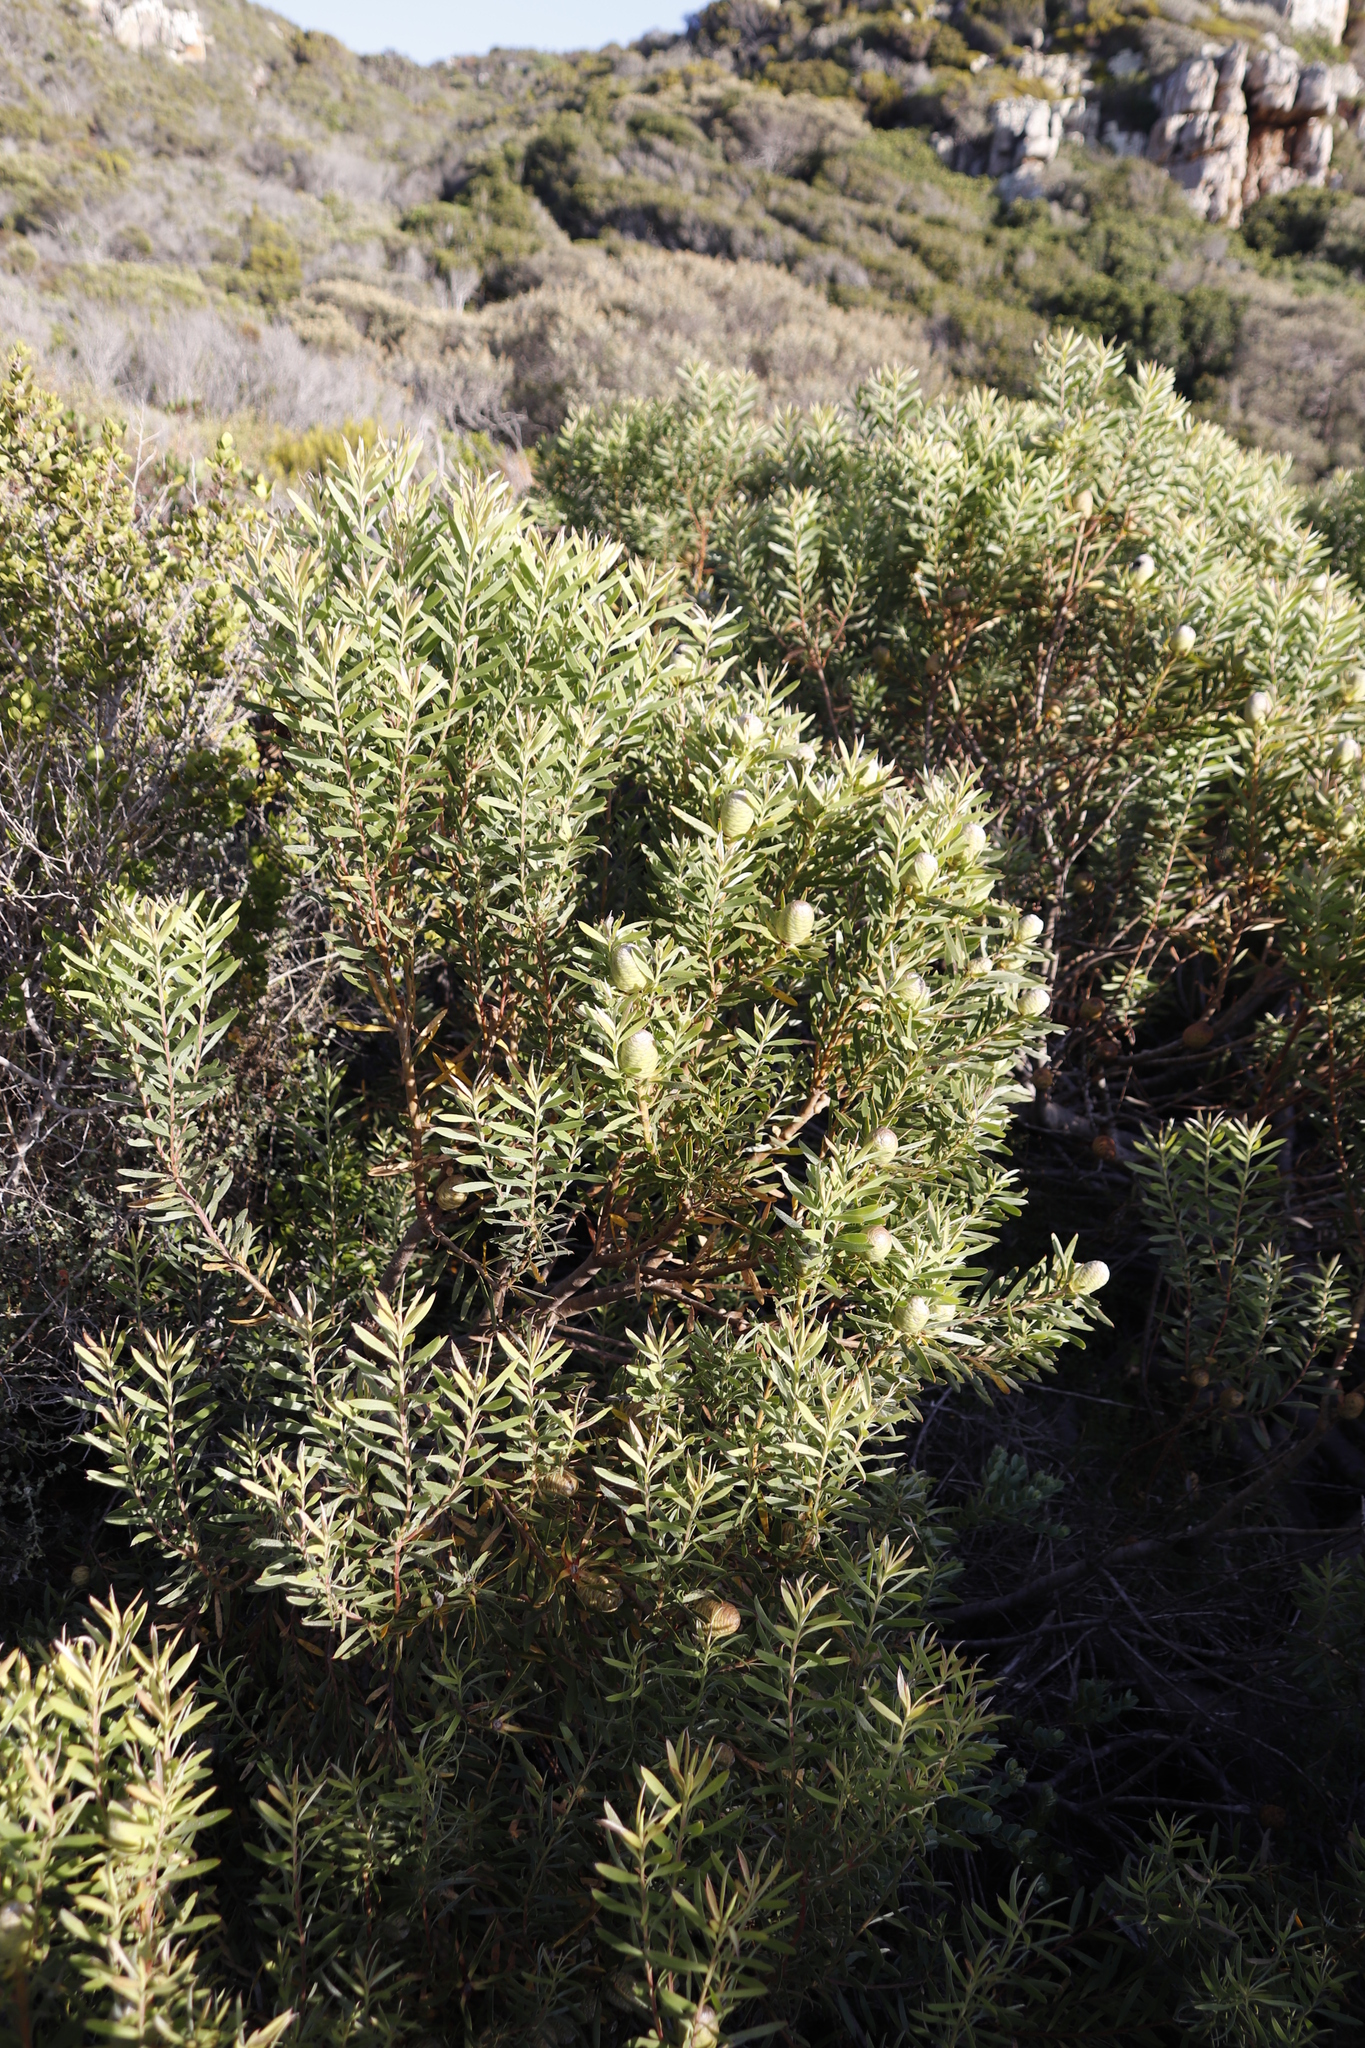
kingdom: Plantae
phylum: Tracheophyta
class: Magnoliopsida
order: Proteales
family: Proteaceae
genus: Leucadendron
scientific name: Leucadendron coniferum
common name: Dune conebush
